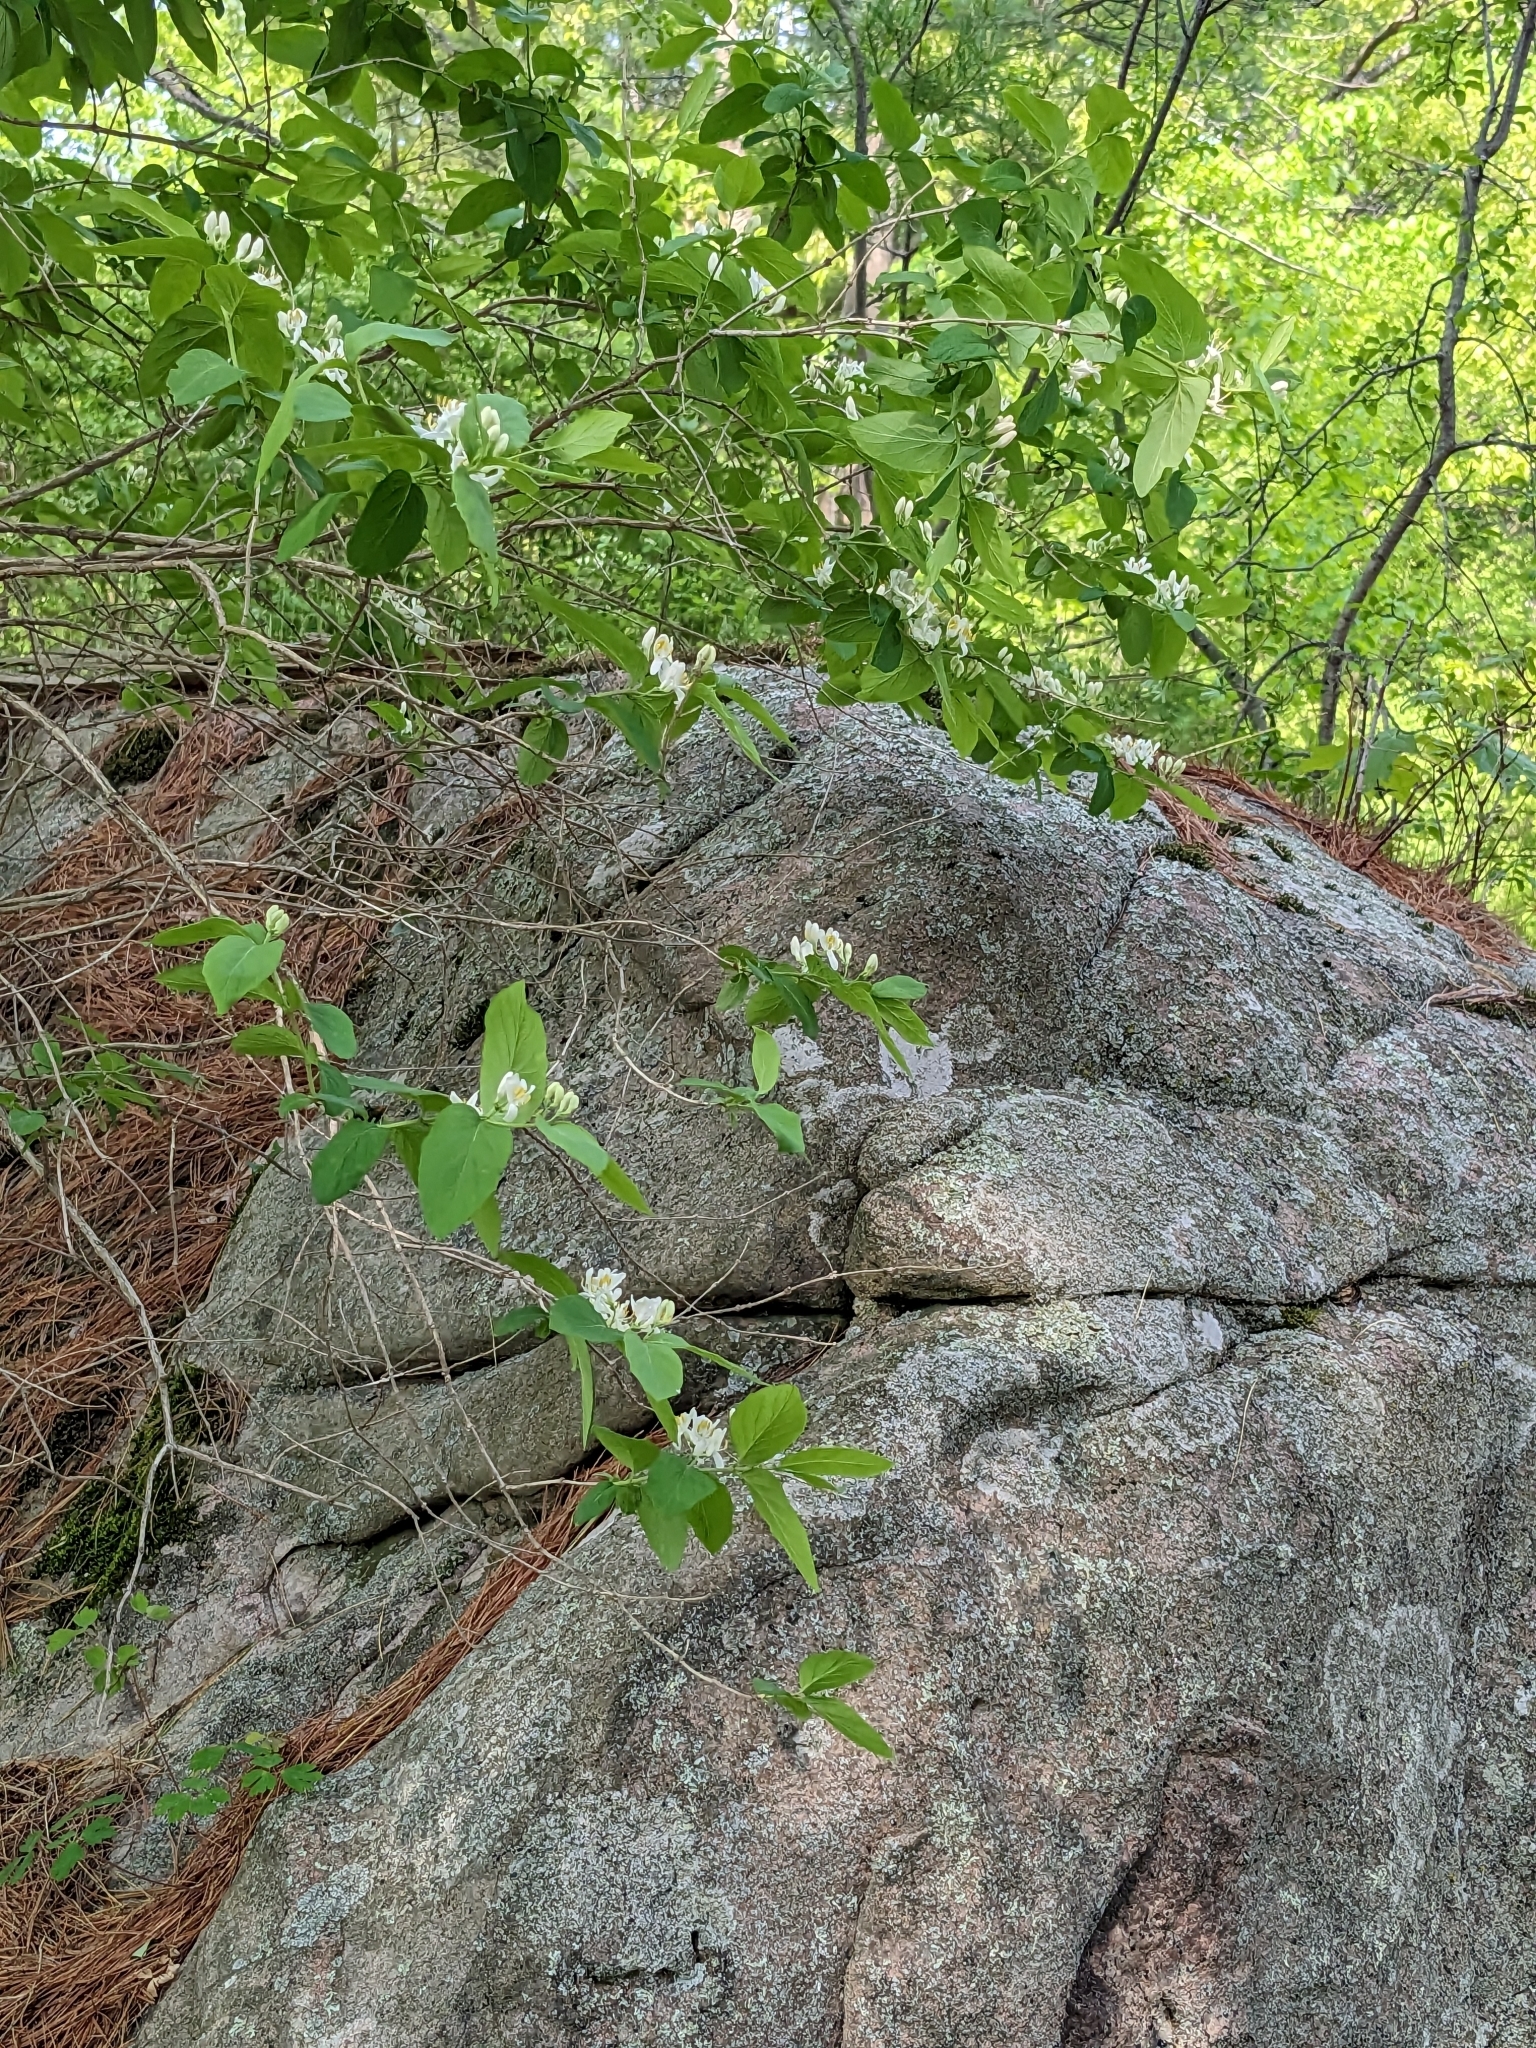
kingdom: Plantae
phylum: Tracheophyta
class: Magnoliopsida
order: Dipsacales
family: Caprifoliaceae
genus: Lonicera
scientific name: Lonicera
